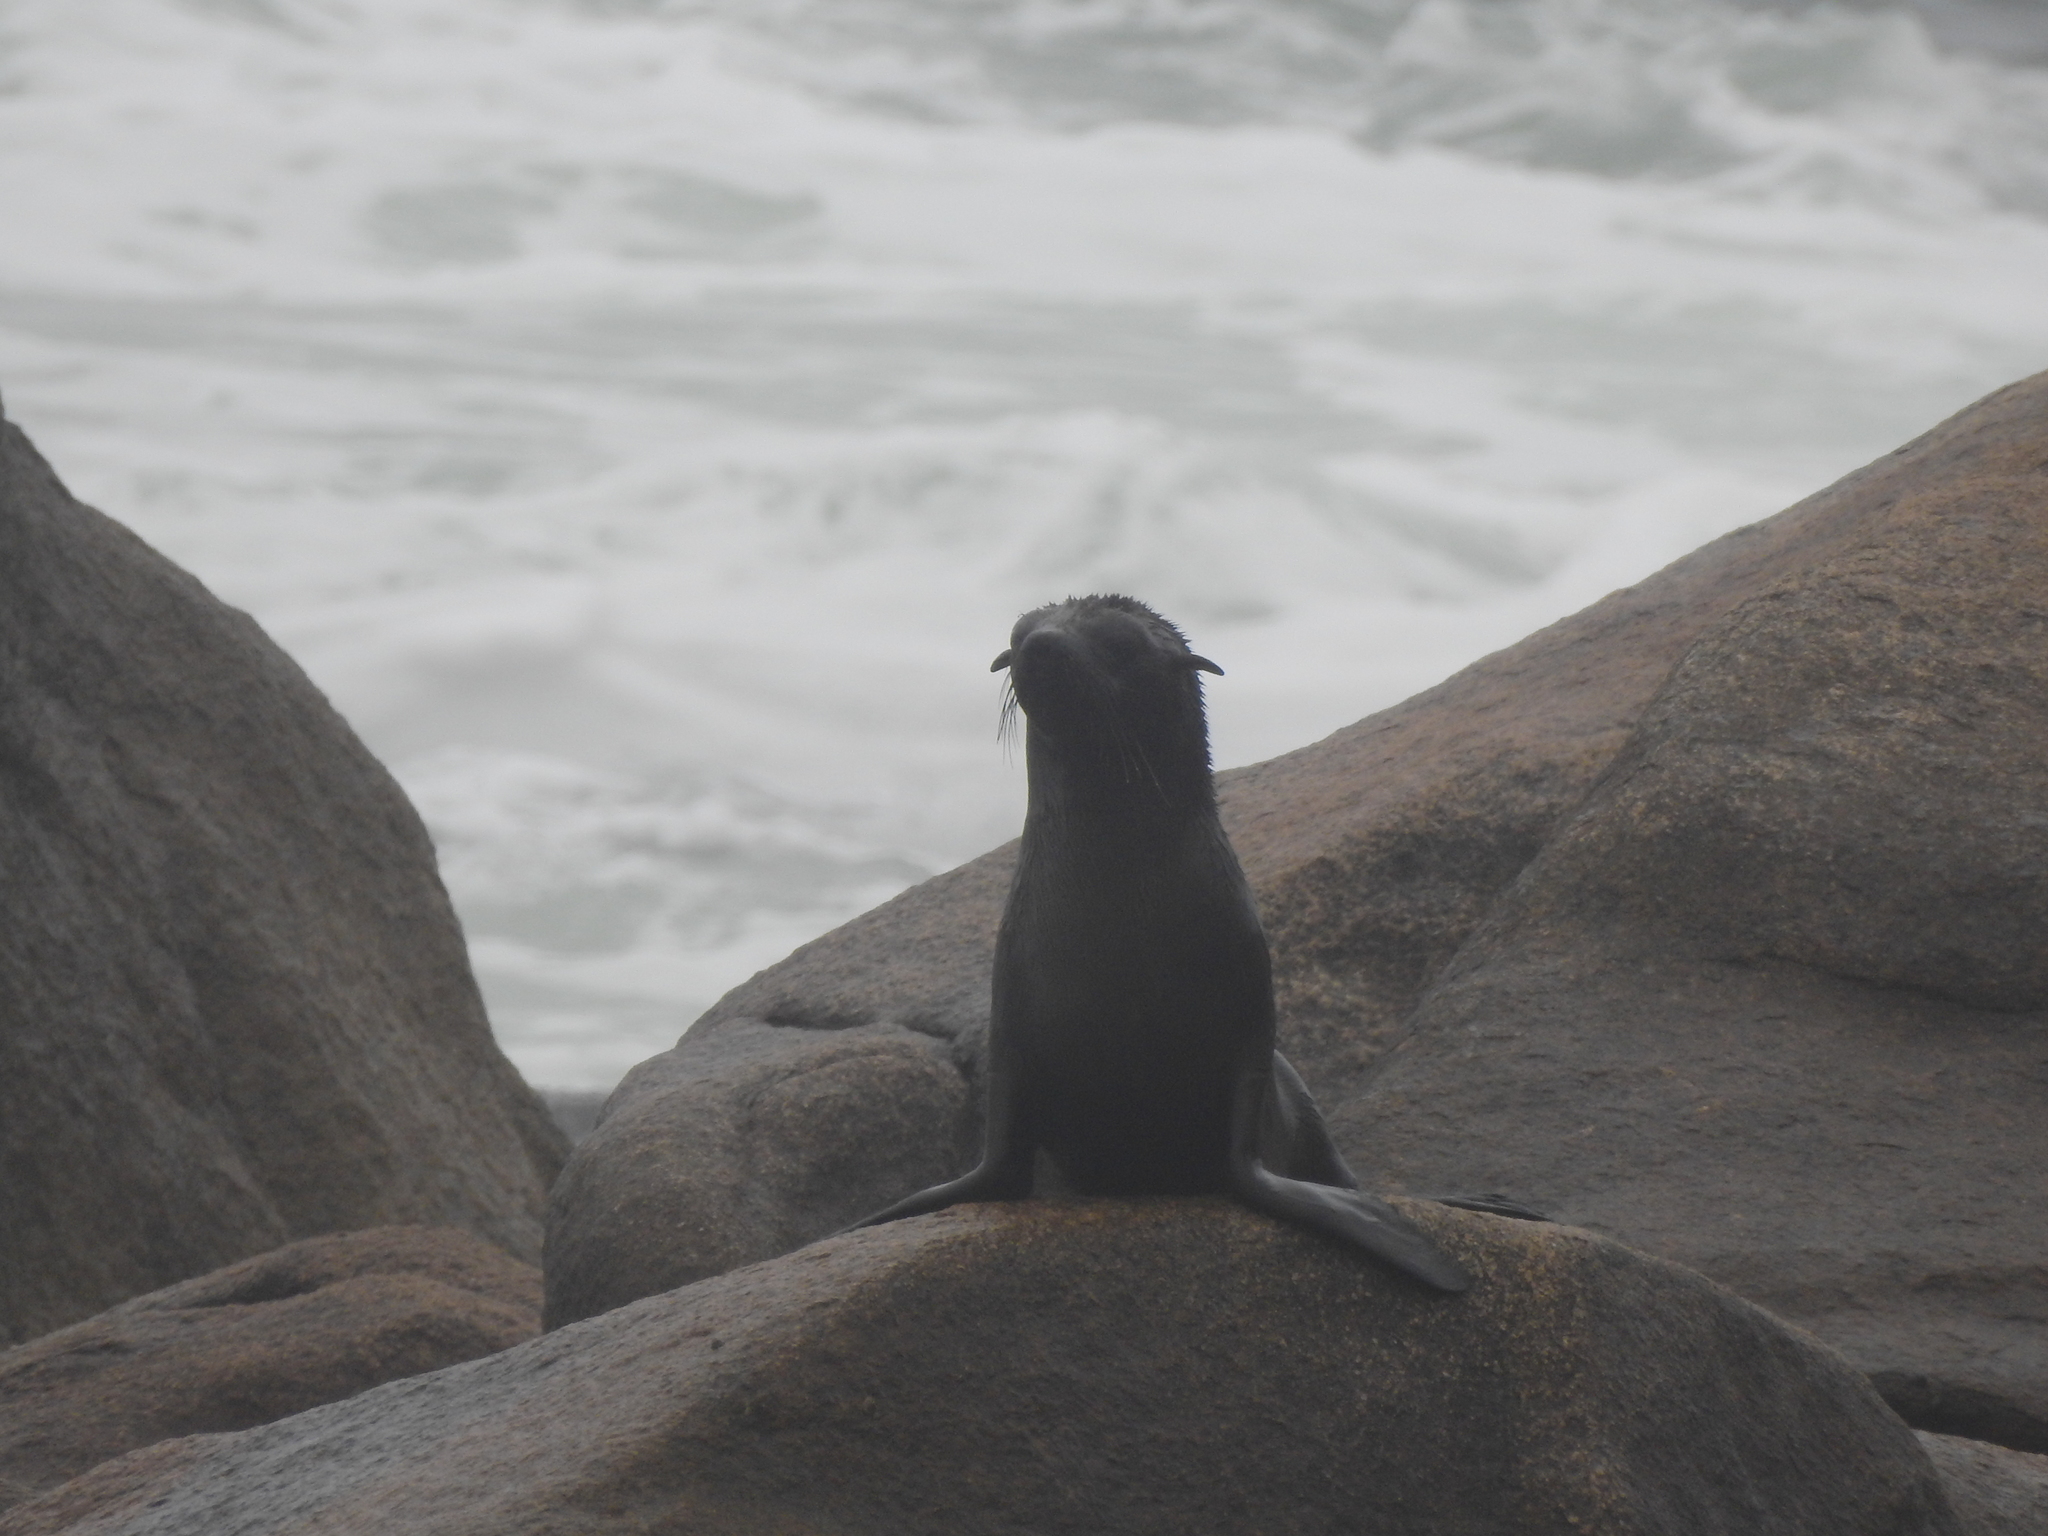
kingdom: Animalia
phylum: Chordata
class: Mammalia
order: Carnivora
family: Otariidae
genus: Arctocephalus
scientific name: Arctocephalus australis
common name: South american fur seal
